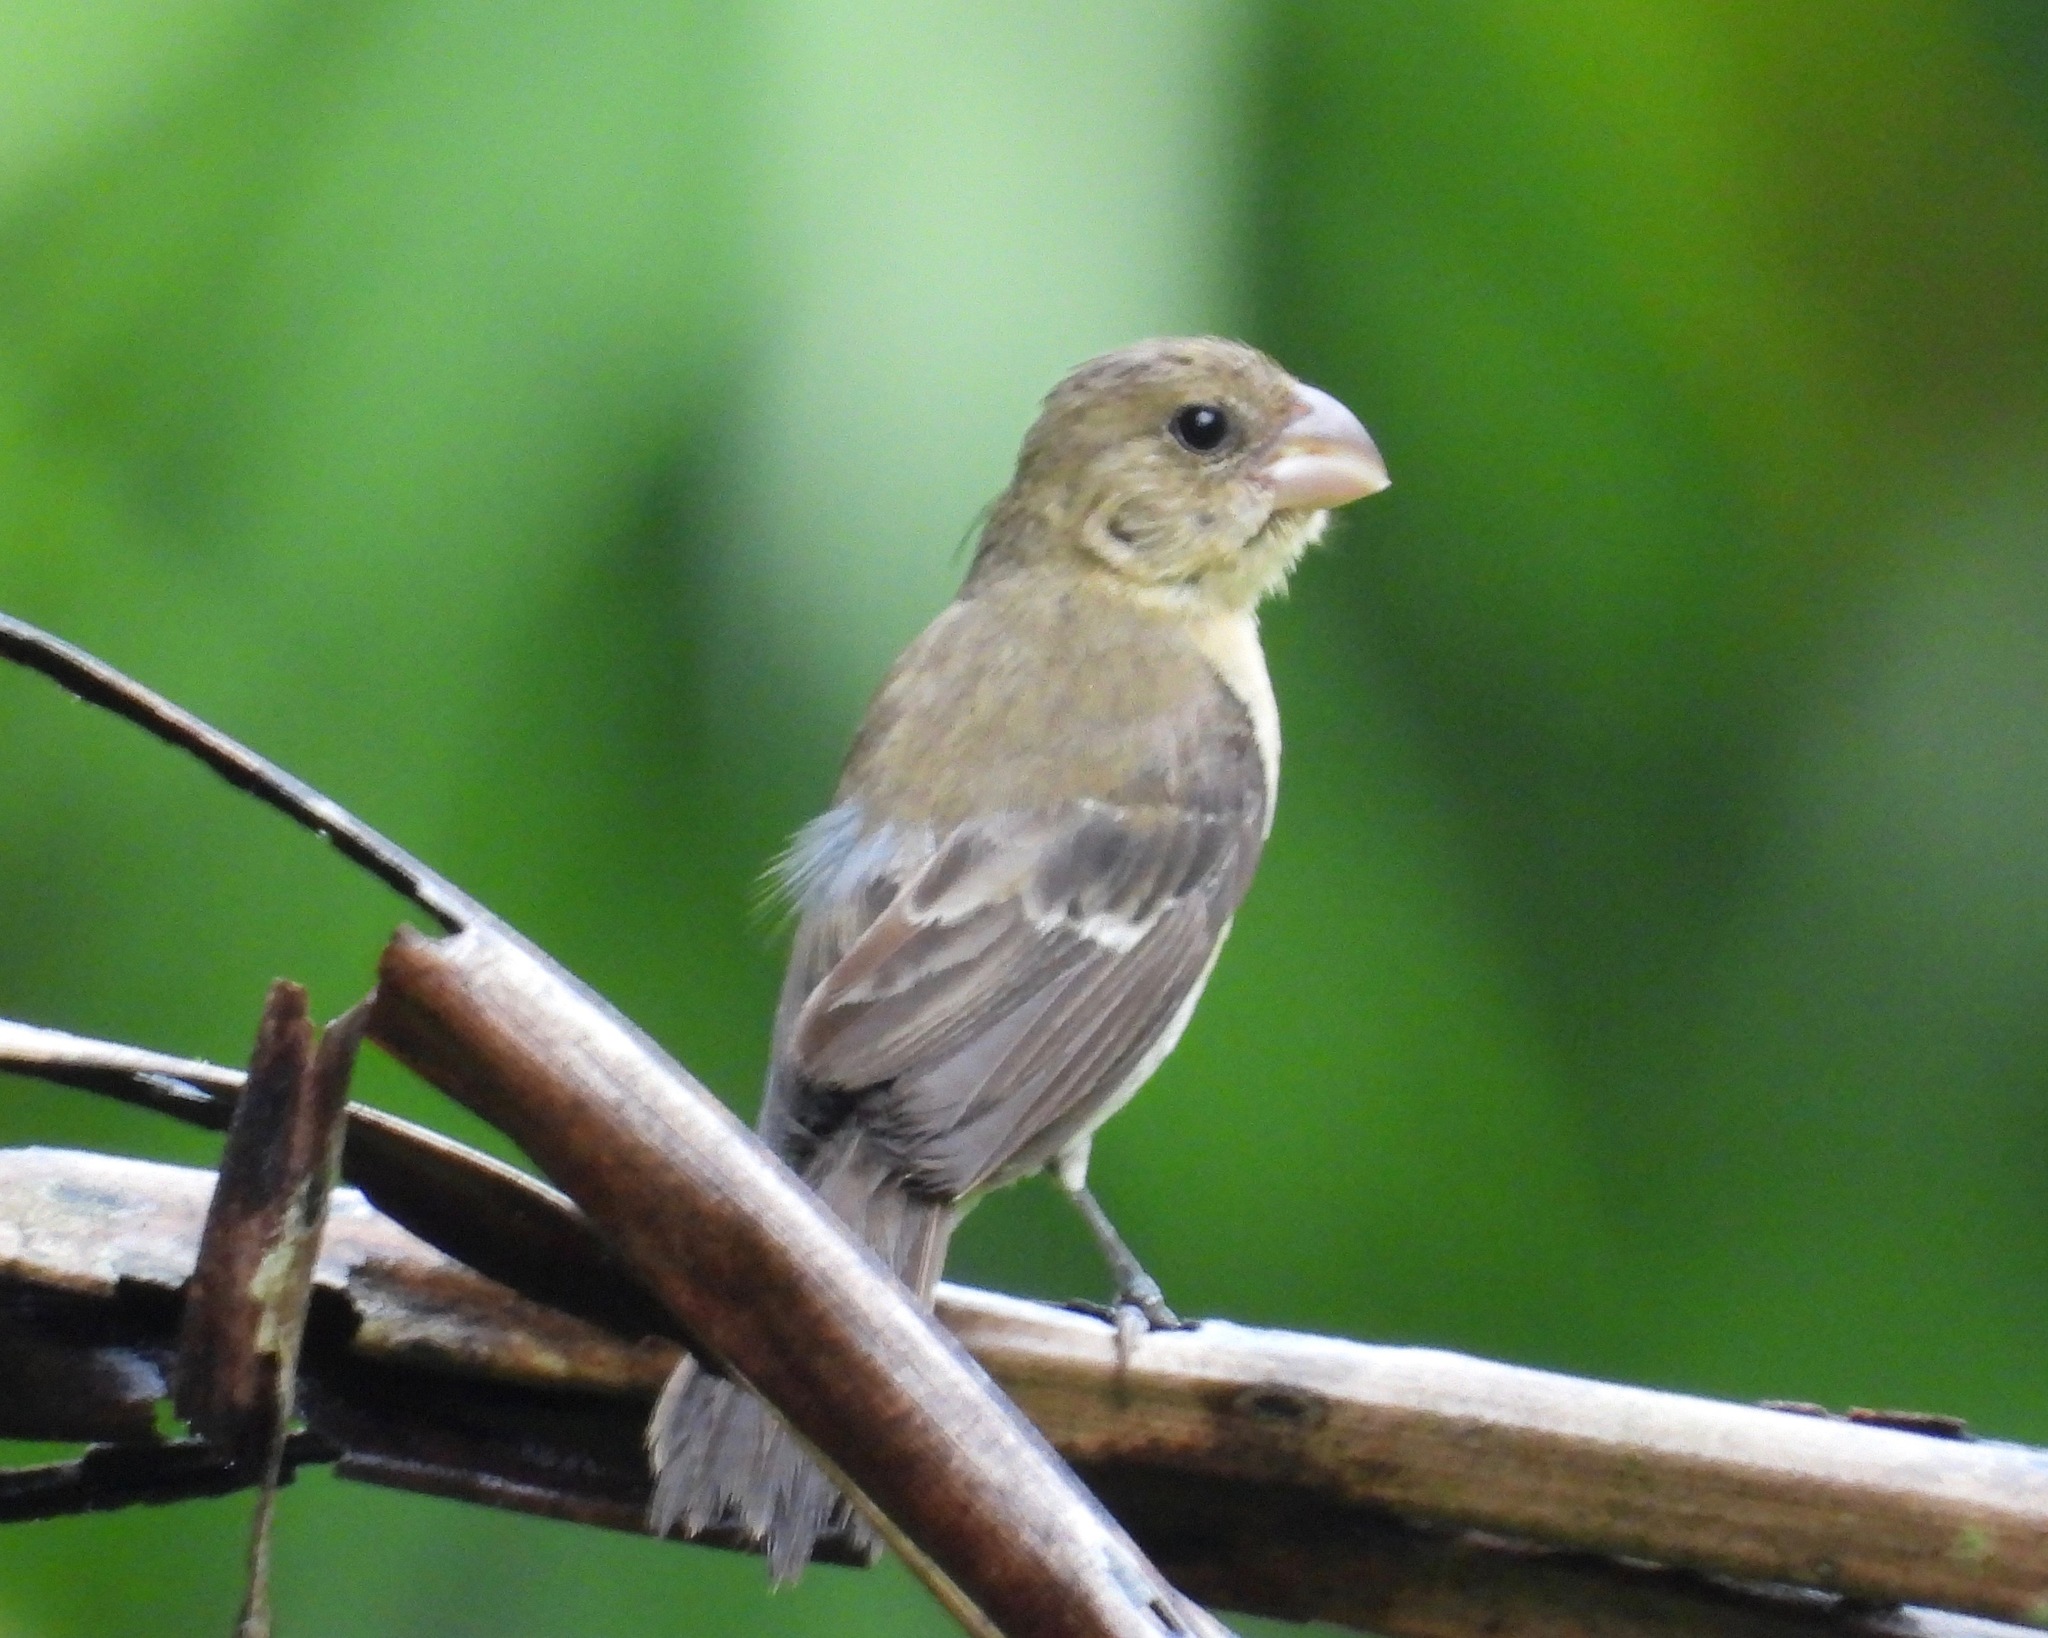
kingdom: Animalia
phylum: Chordata
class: Aves
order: Passeriformes
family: Thraupidae
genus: Sporophila
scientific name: Sporophila morelleti
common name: Morelet's seedeater
